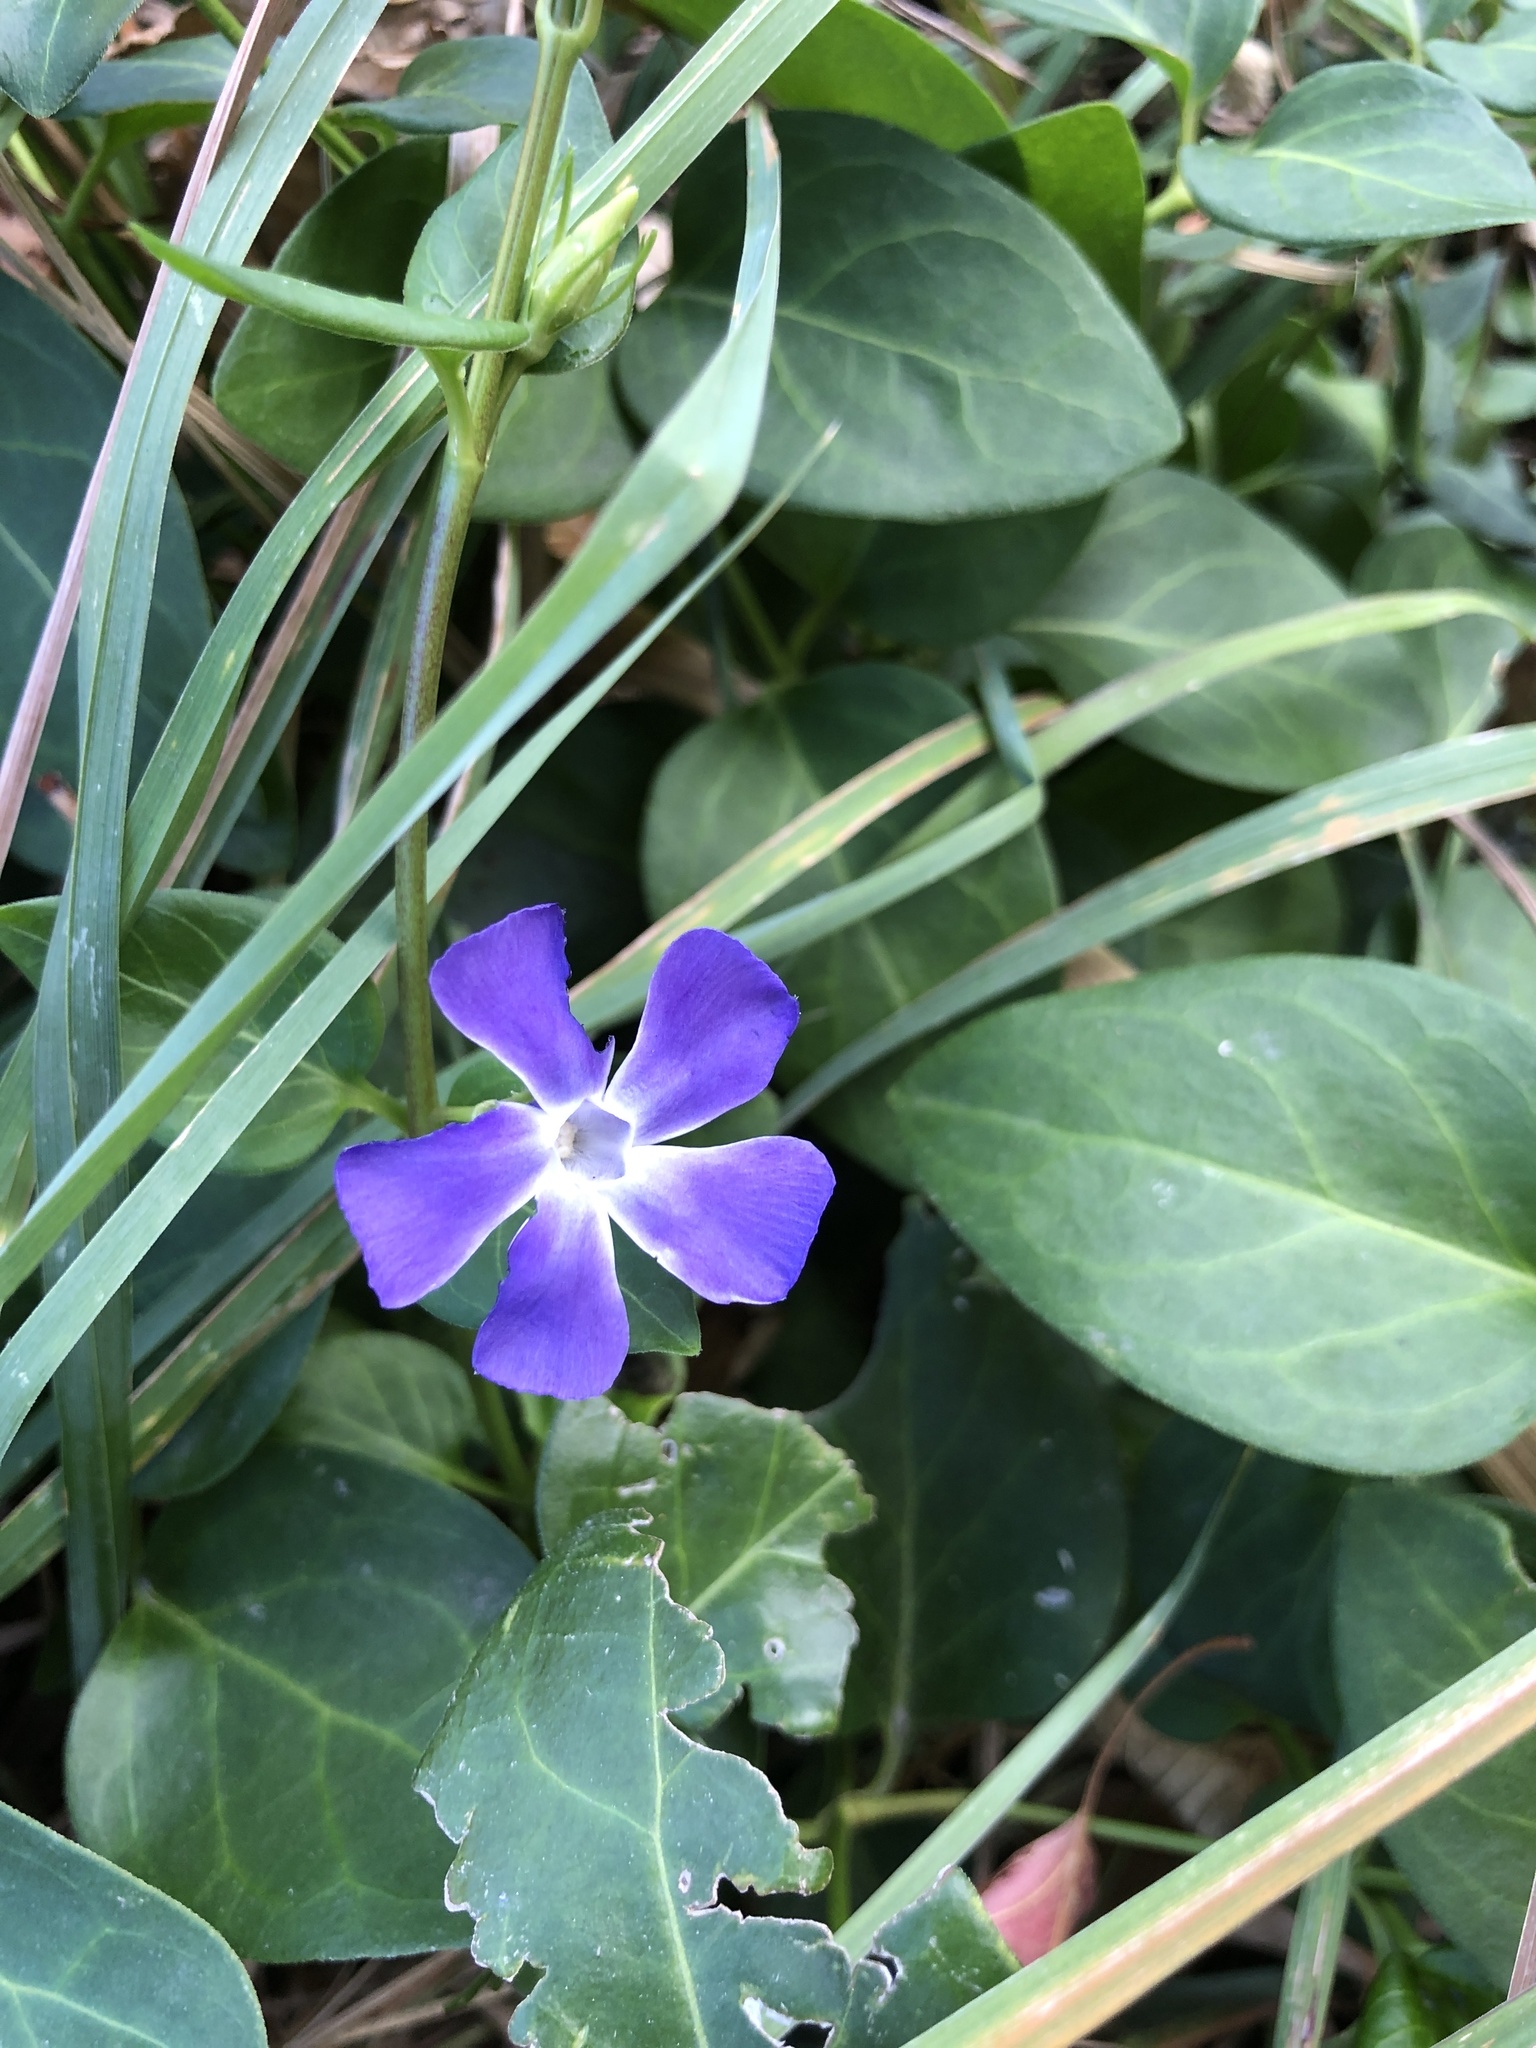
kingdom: Plantae
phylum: Tracheophyta
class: Magnoliopsida
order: Gentianales
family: Apocynaceae
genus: Vinca
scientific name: Vinca major
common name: Greater periwinkle
